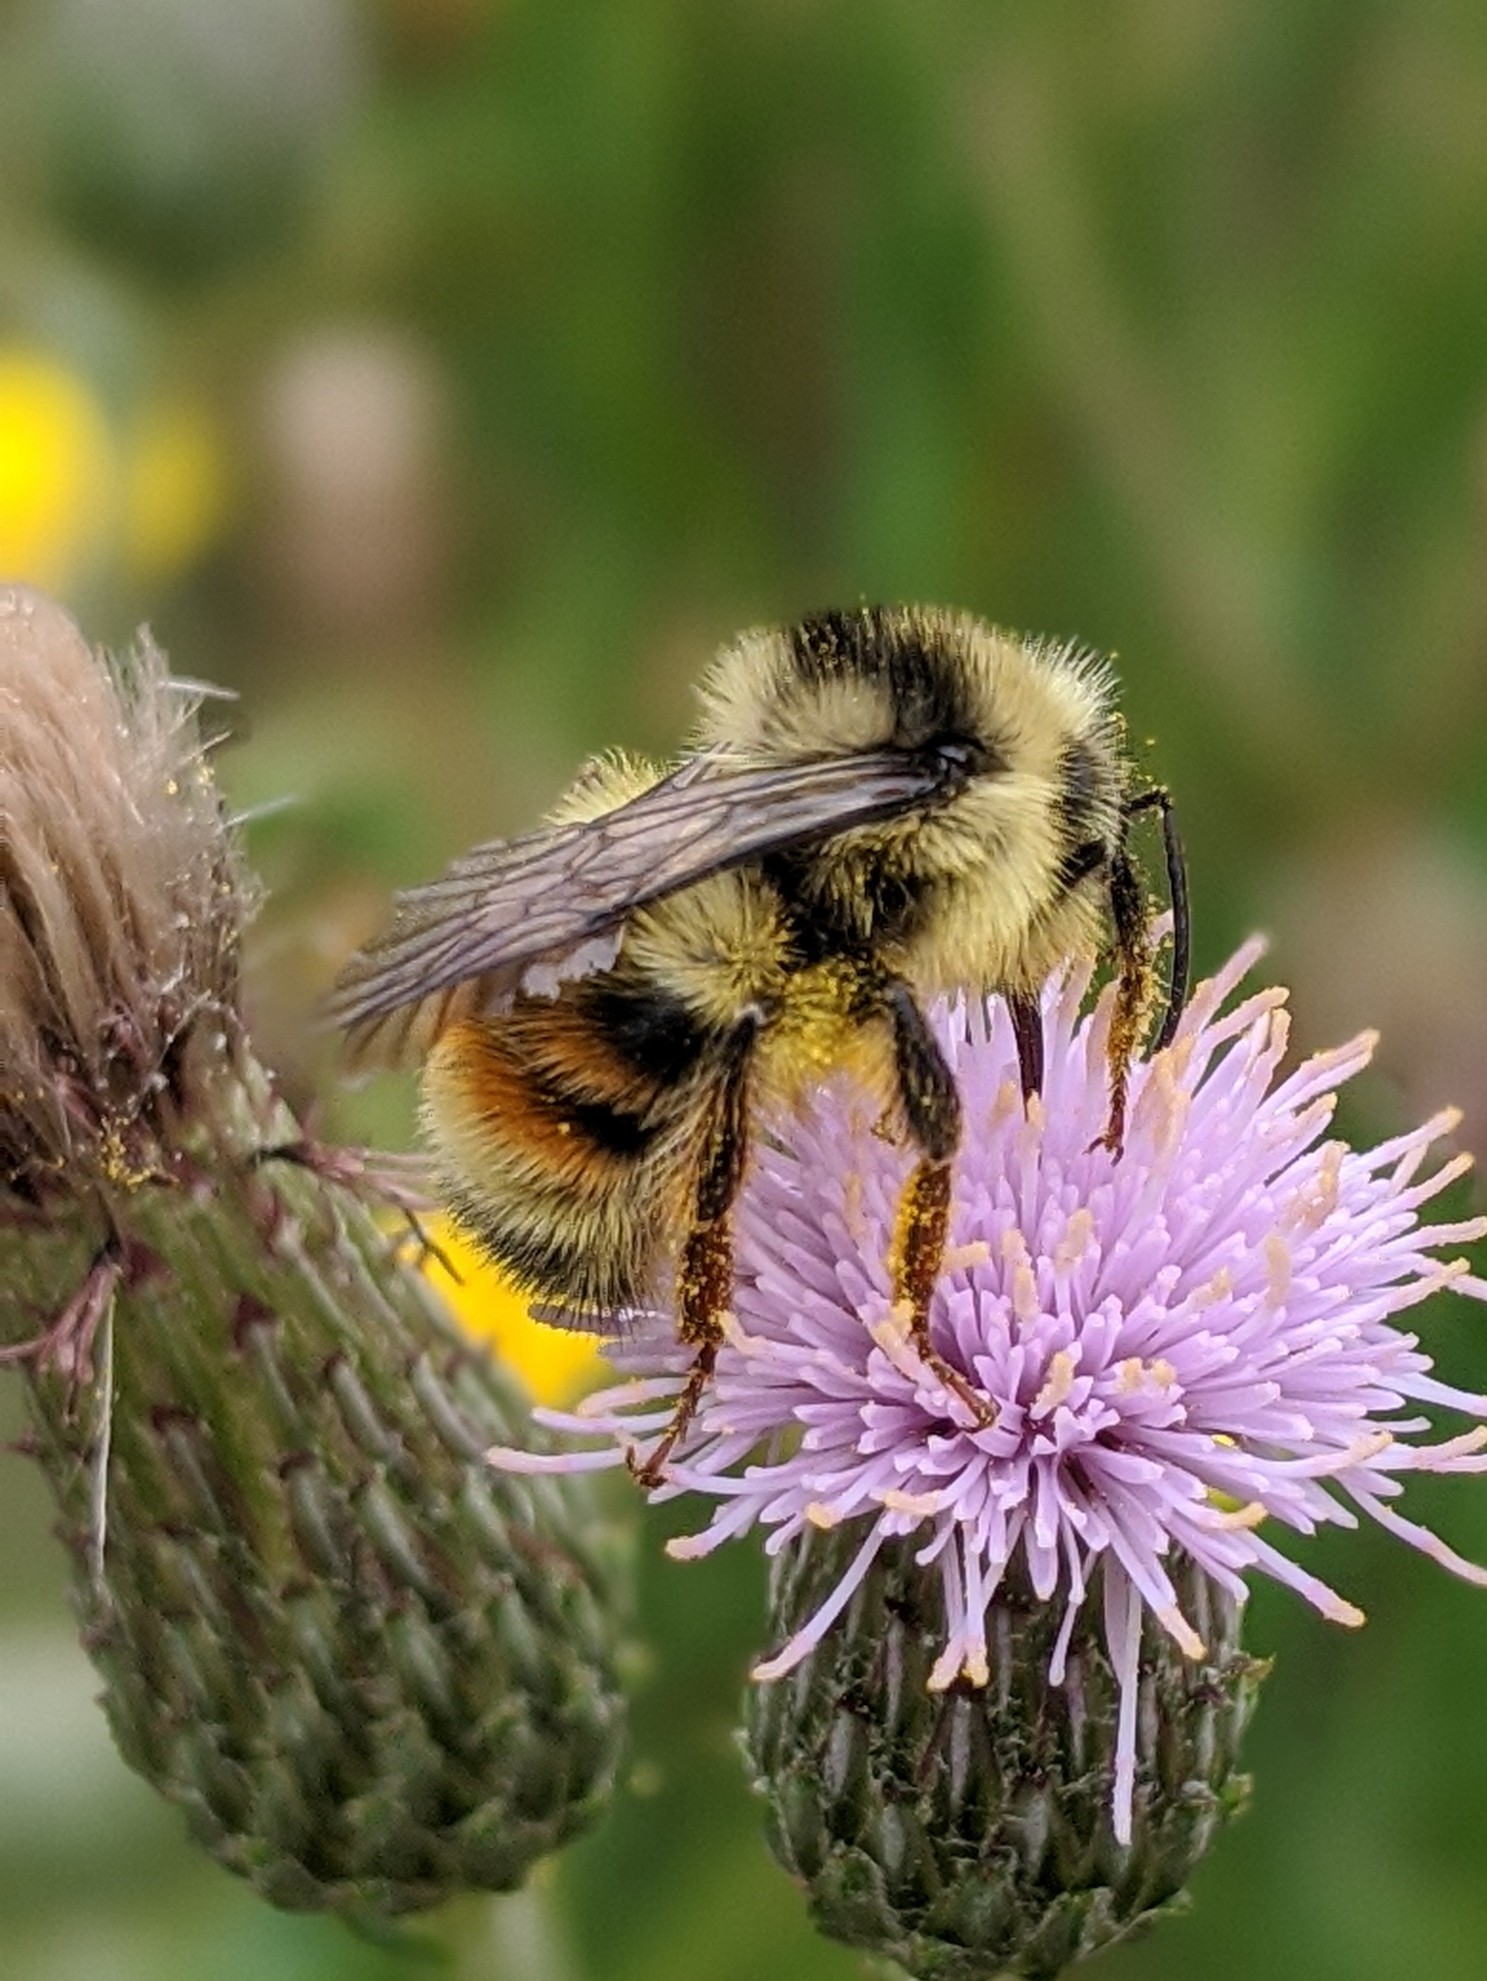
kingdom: Animalia
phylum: Arthropoda
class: Insecta
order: Hymenoptera
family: Apidae
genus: Bombus
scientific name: Bombus vancouverensis
